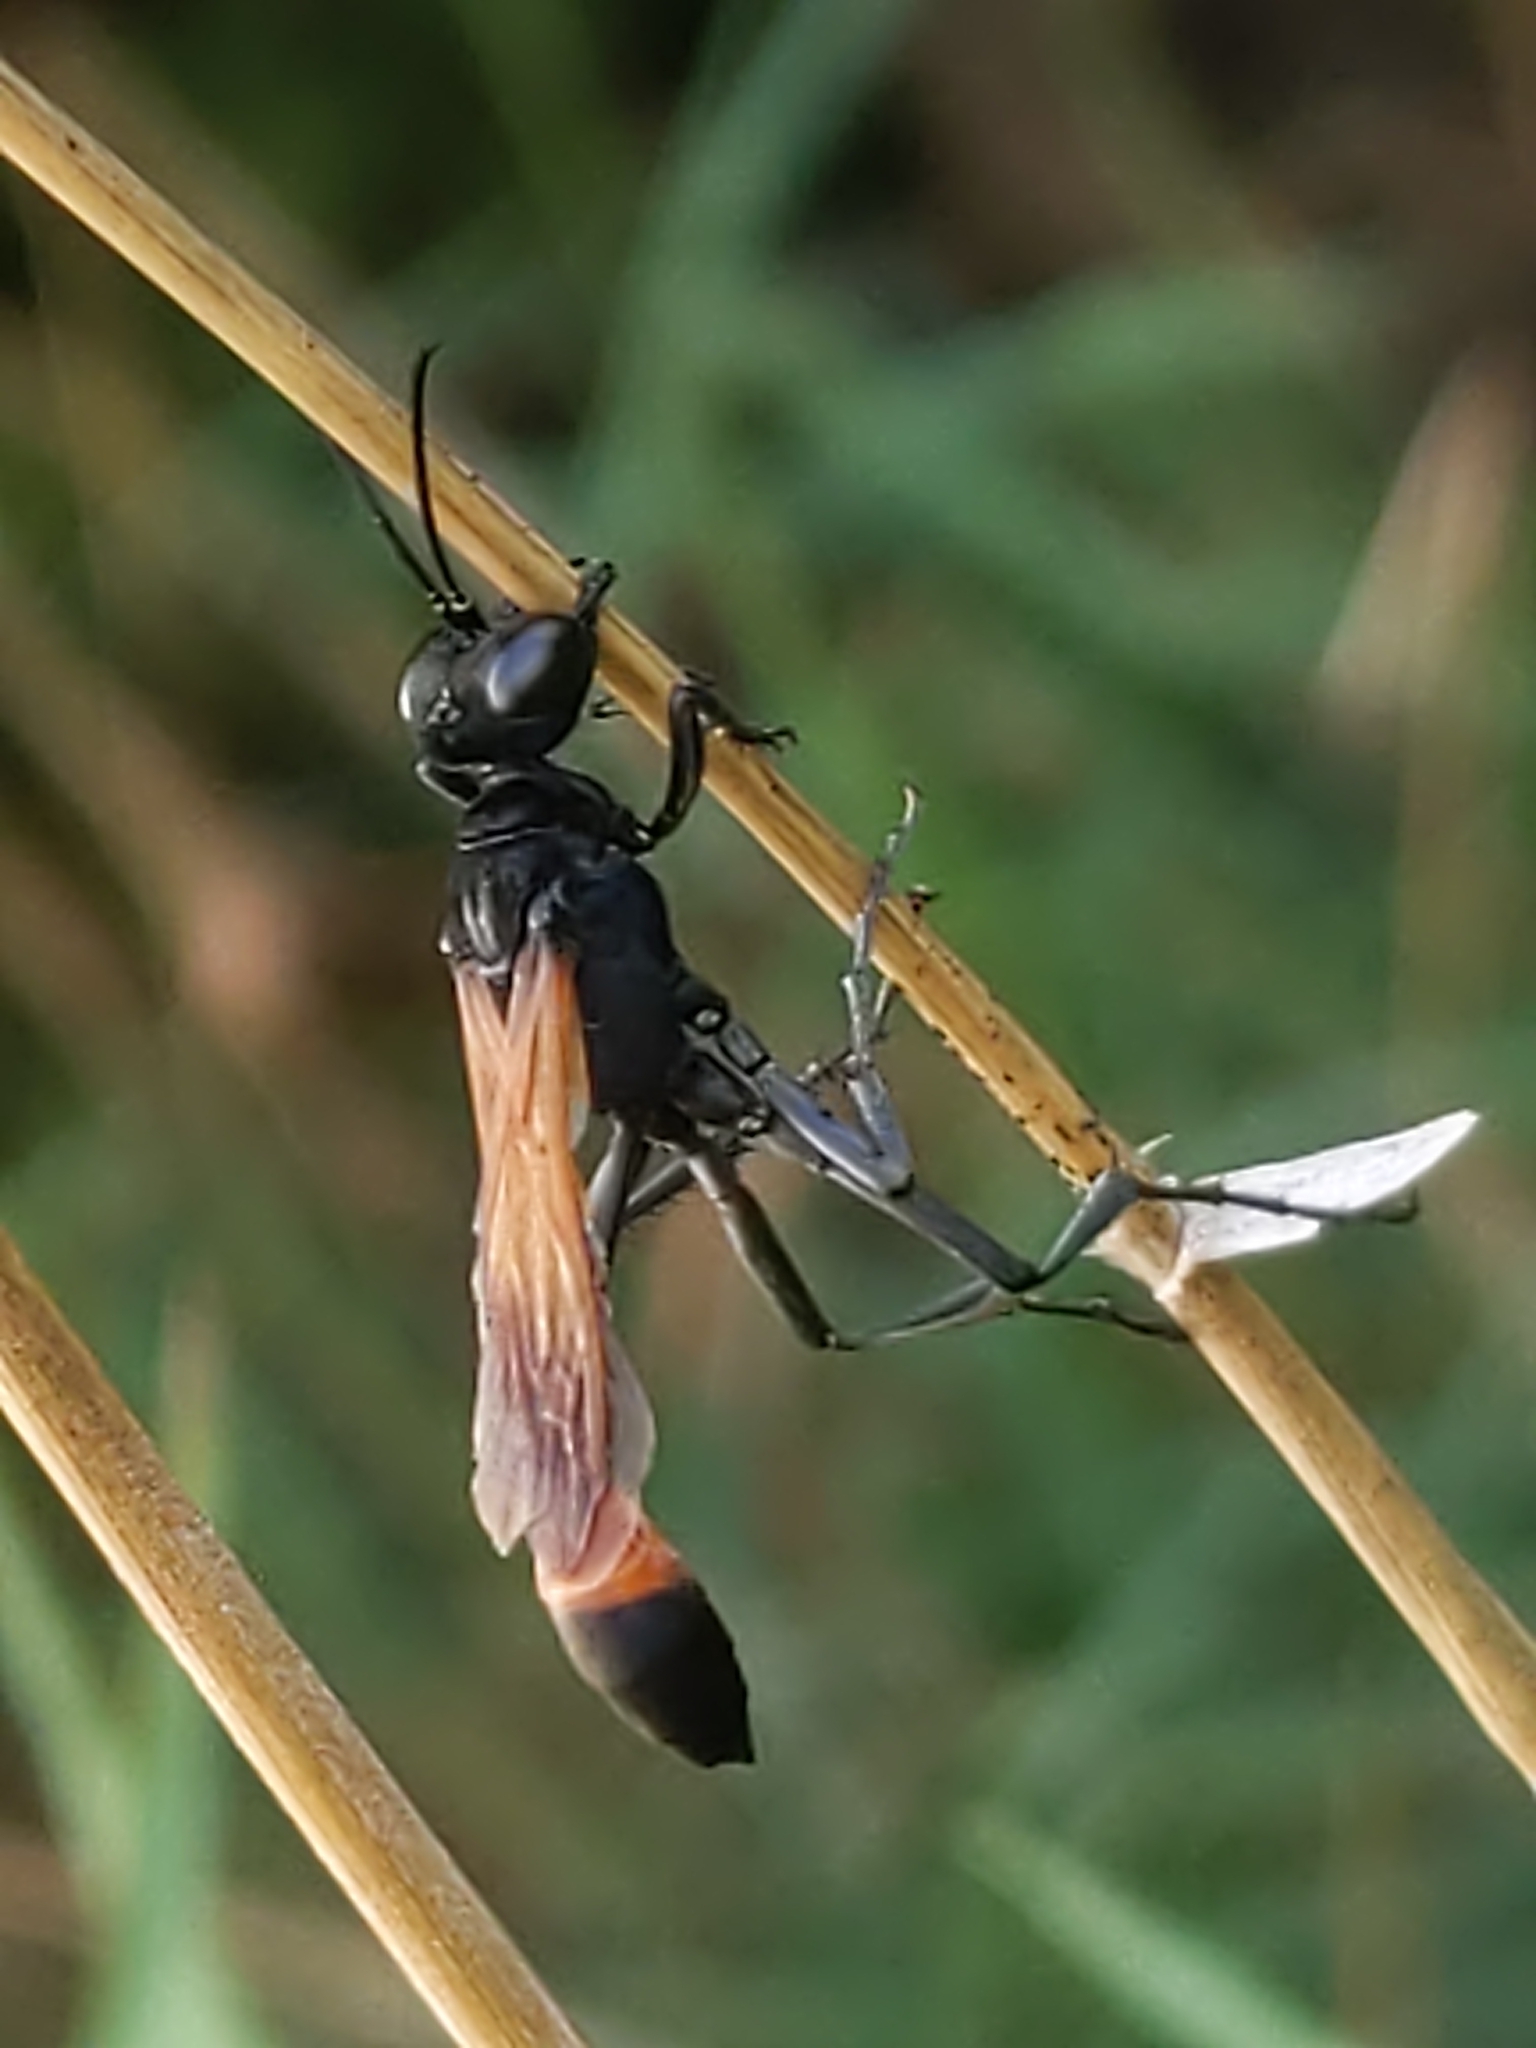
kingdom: Animalia
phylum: Arthropoda
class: Insecta
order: Hymenoptera
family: Sphecidae
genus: Ammophila
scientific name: Ammophila pictipennis
